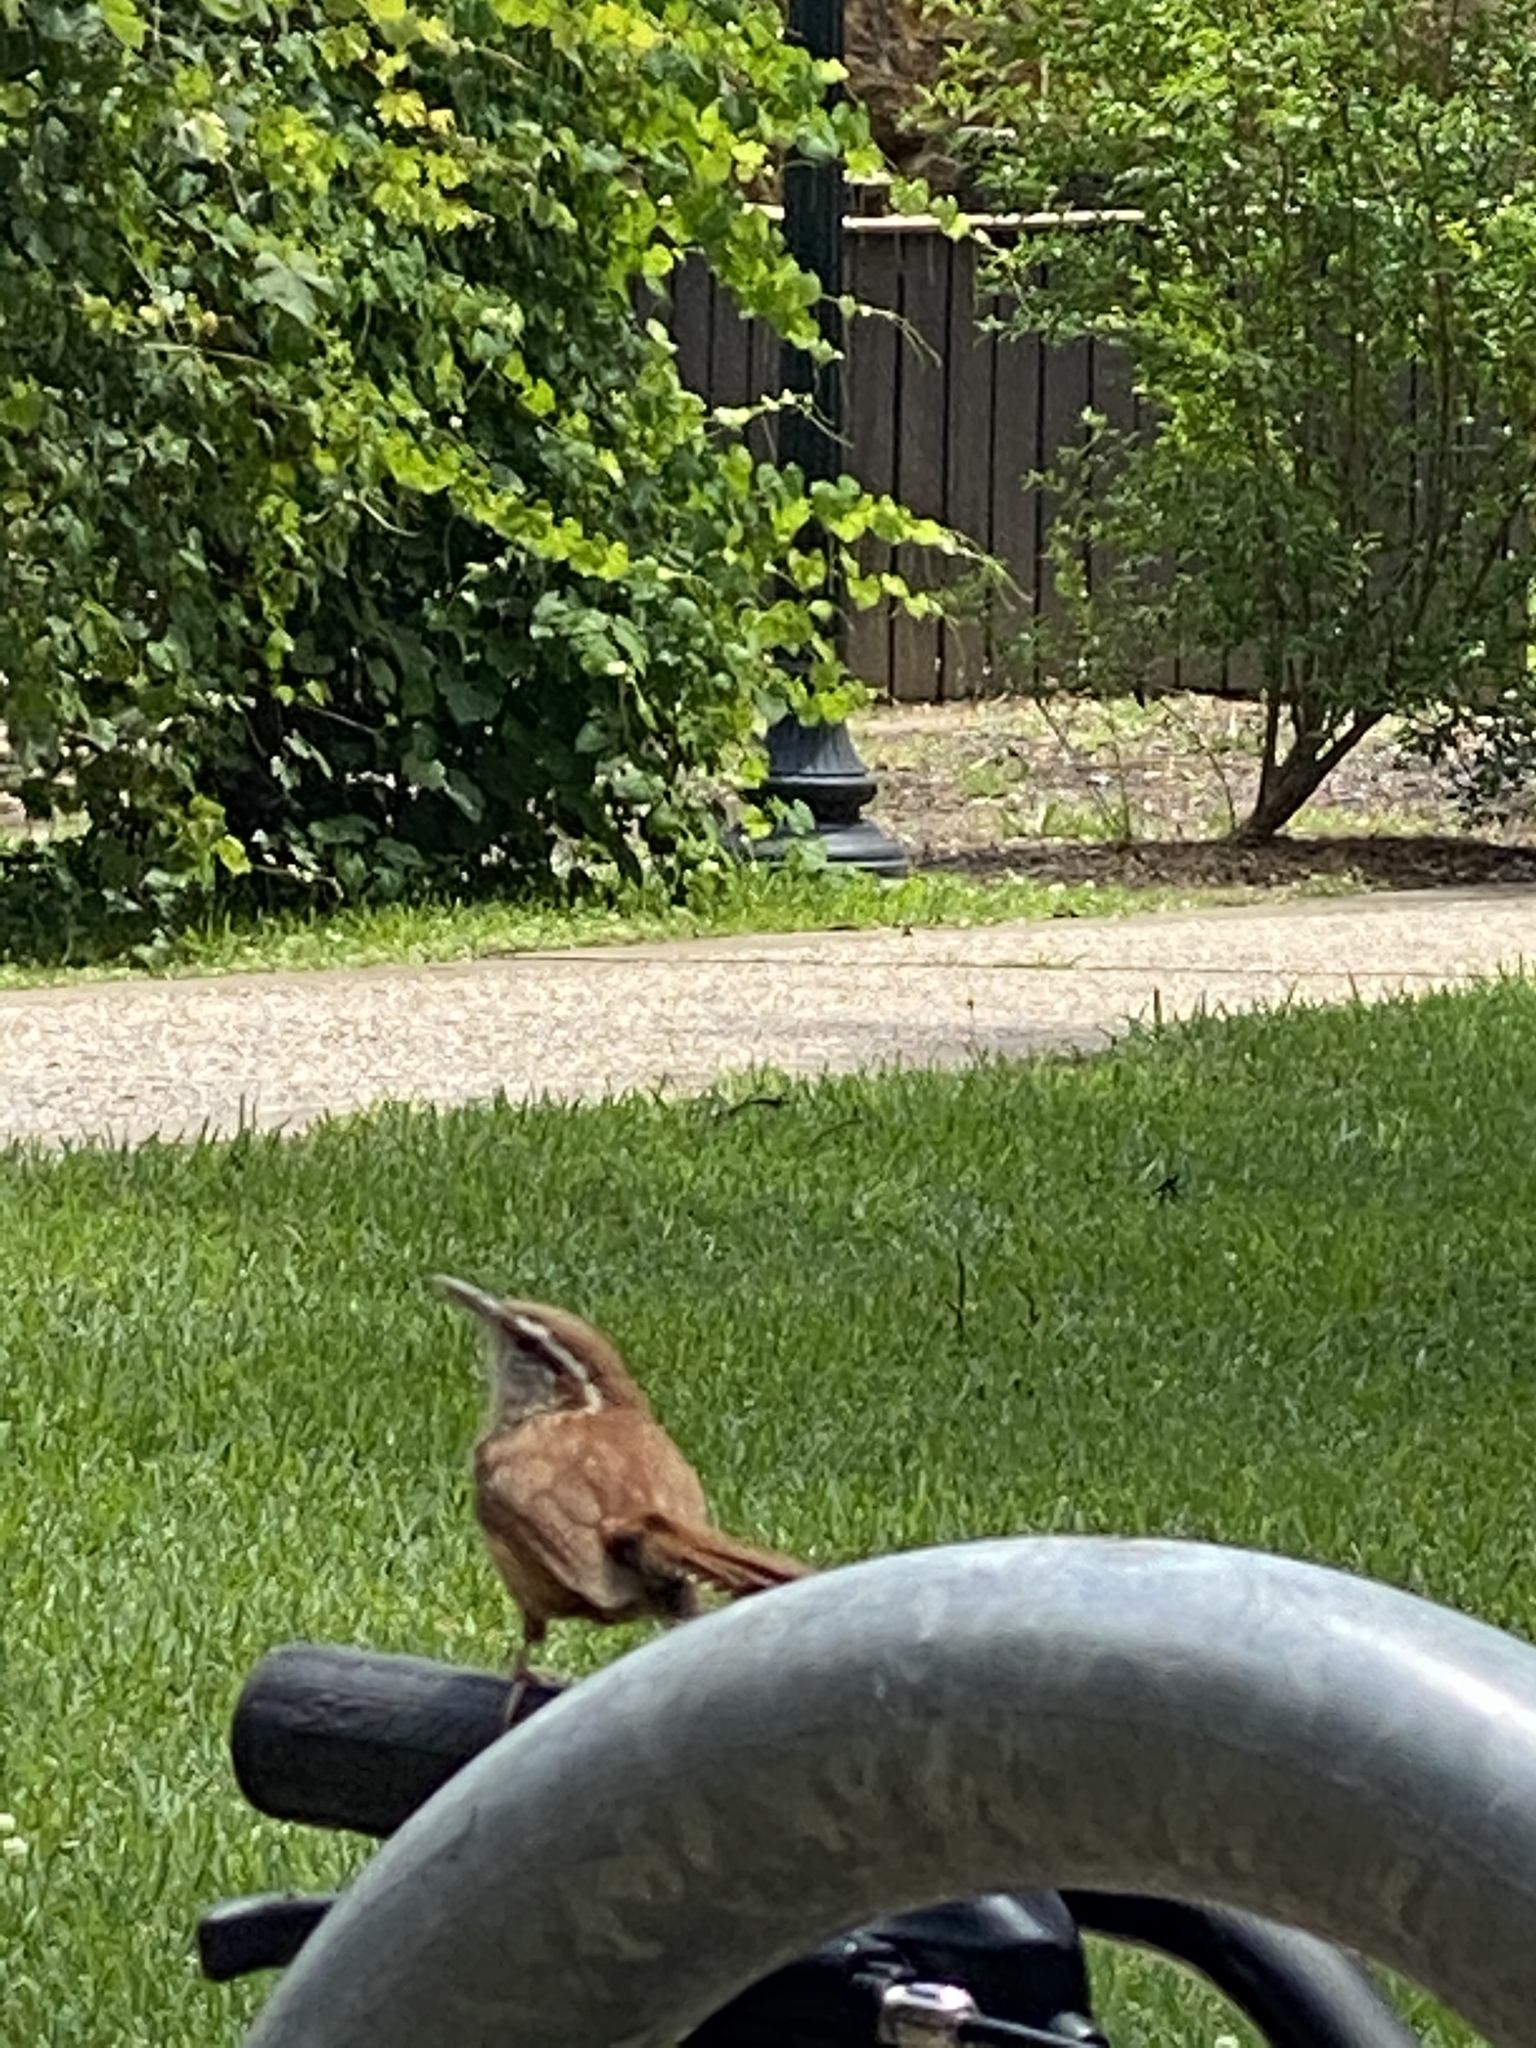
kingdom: Animalia
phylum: Chordata
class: Aves
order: Passeriformes
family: Troglodytidae
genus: Thryothorus
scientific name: Thryothorus ludovicianus
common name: Carolina wren
